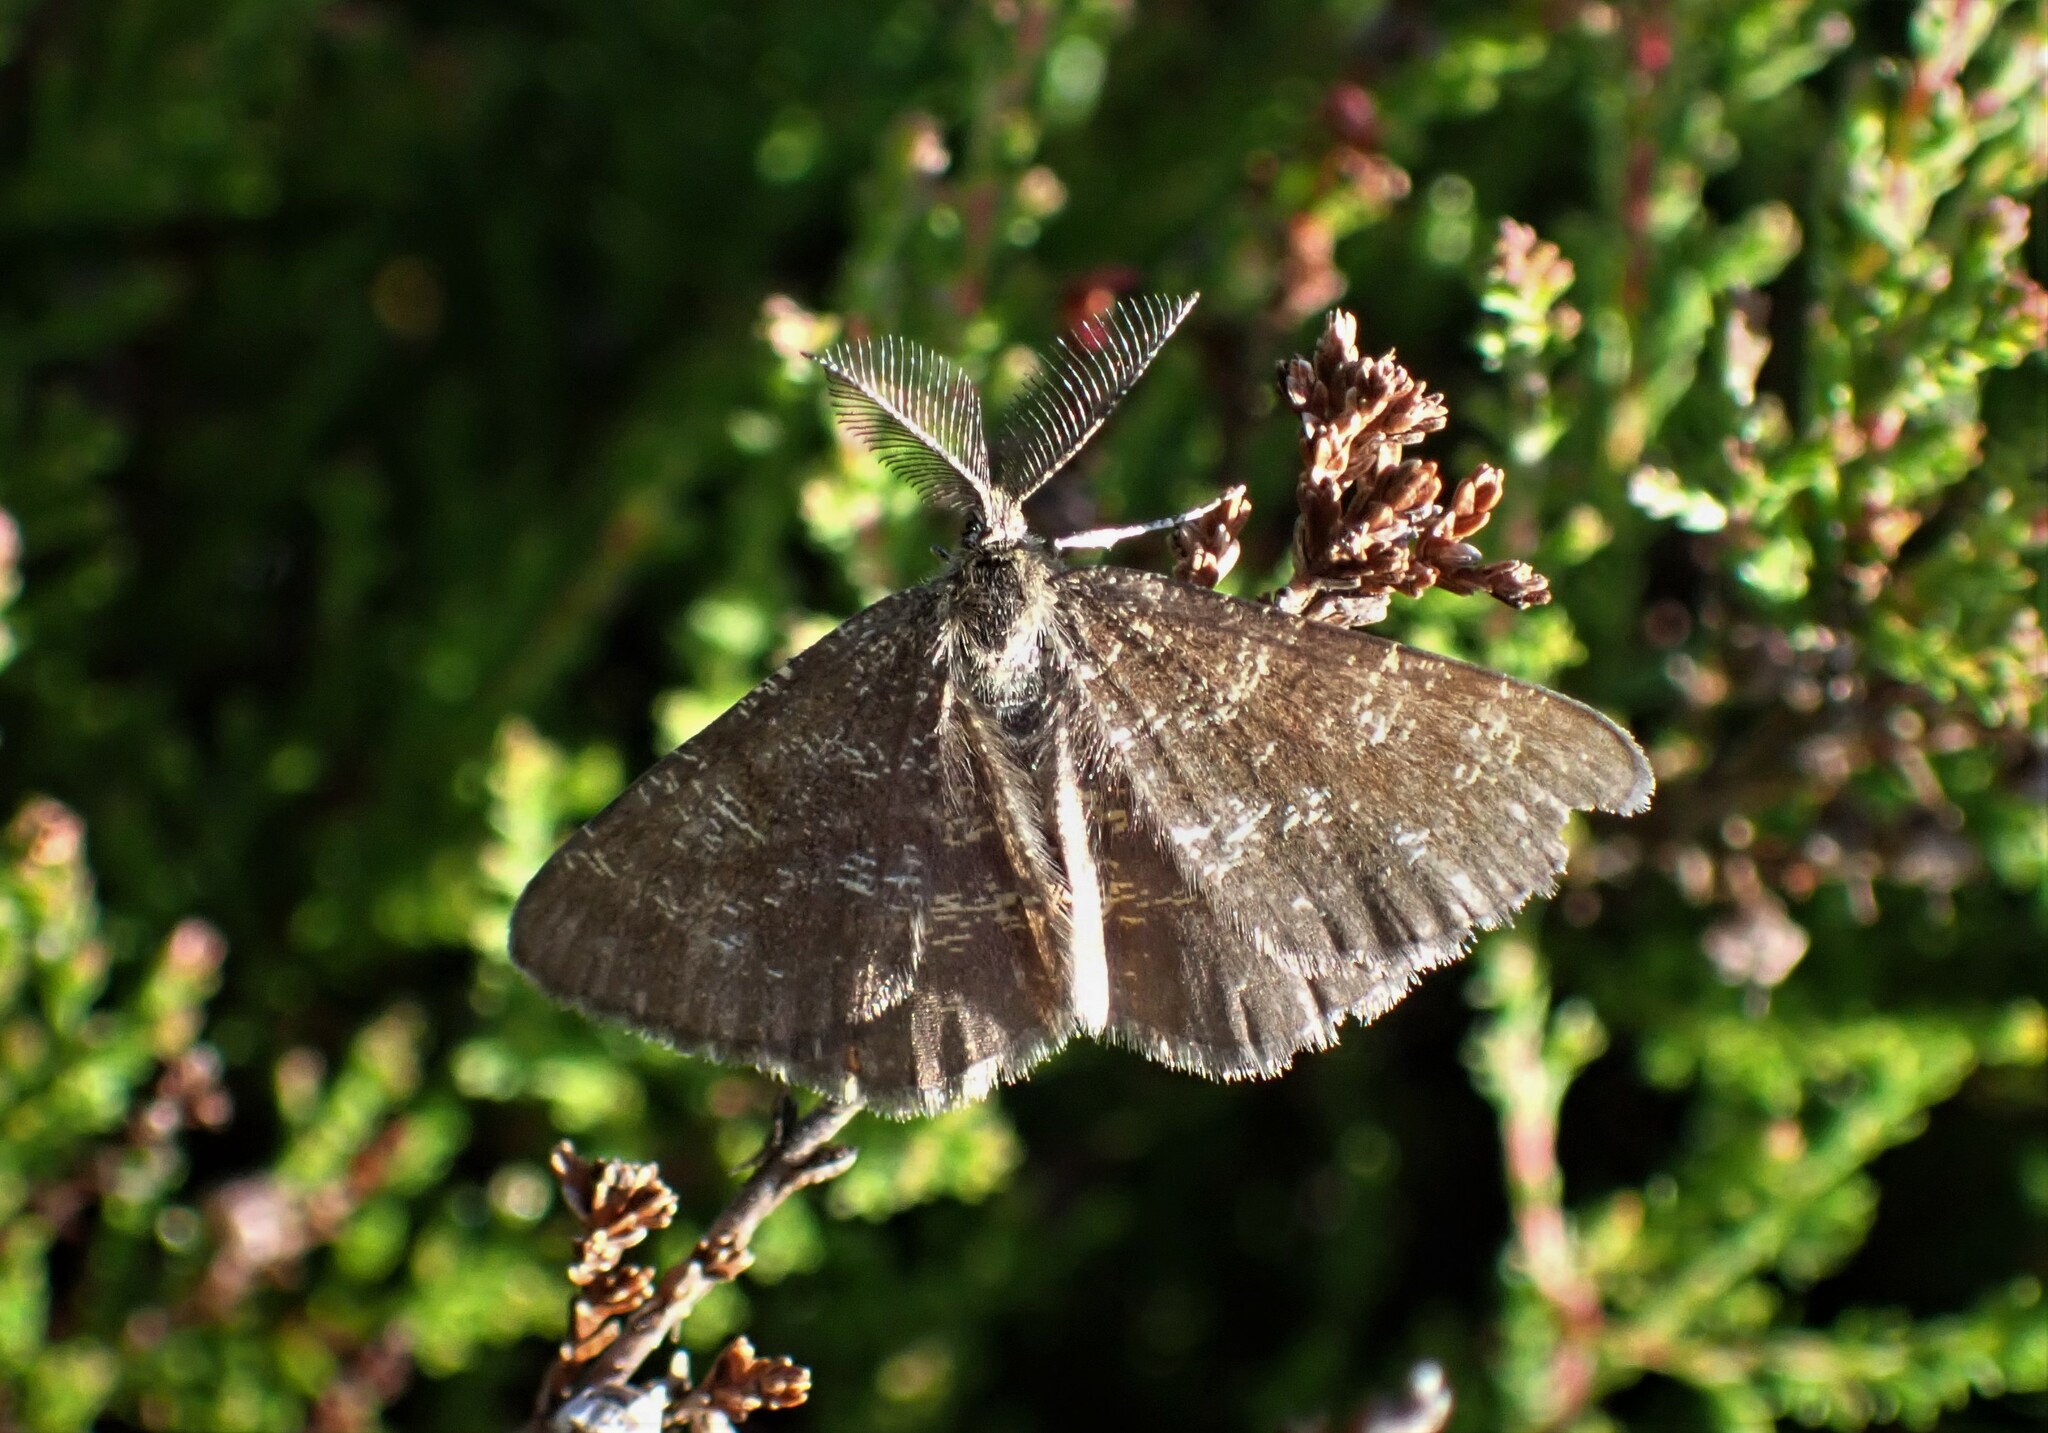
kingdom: Animalia
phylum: Arthropoda
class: Insecta
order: Lepidoptera
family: Geometridae
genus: Ematurga
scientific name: Ematurga atomaria
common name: Common heath
